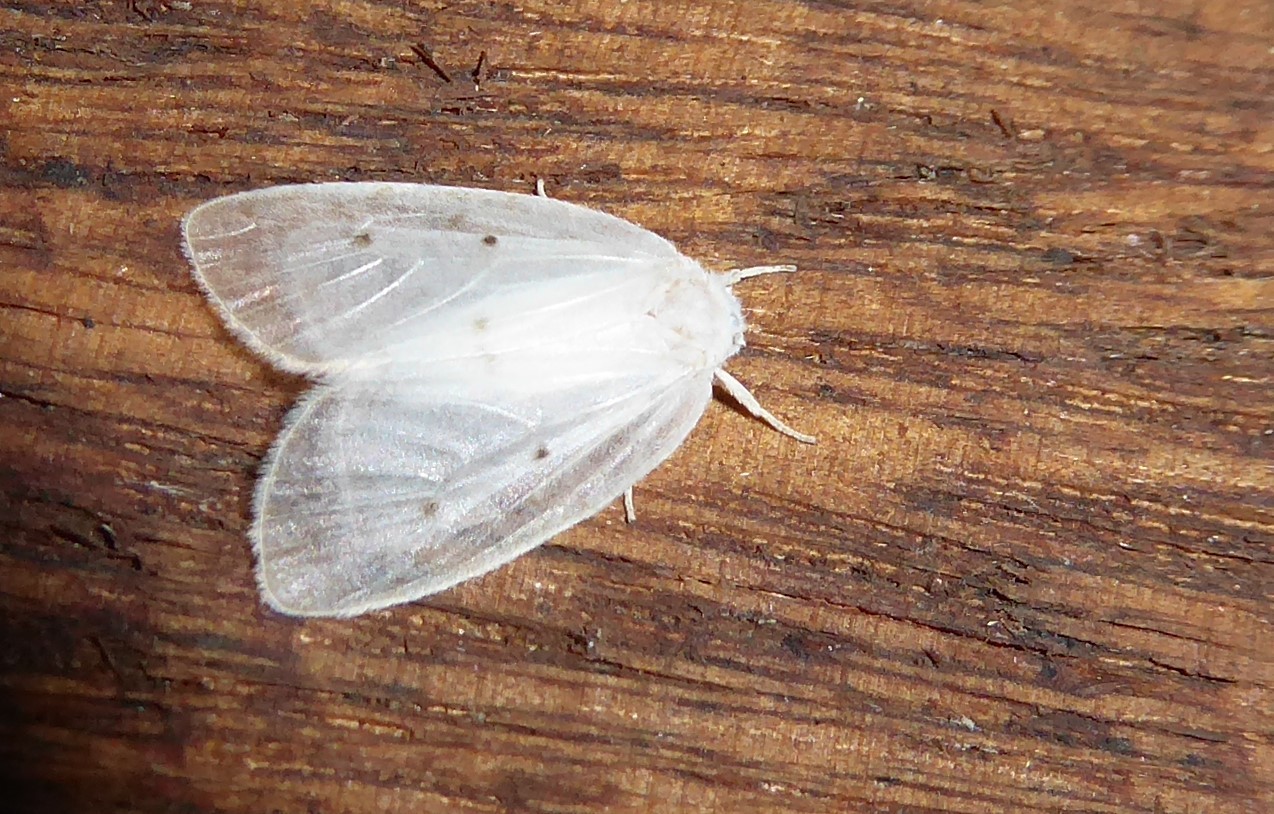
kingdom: Animalia
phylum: Arthropoda
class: Insecta
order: Lepidoptera
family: Erebidae
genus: Schistophleps
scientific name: Schistophleps albida
